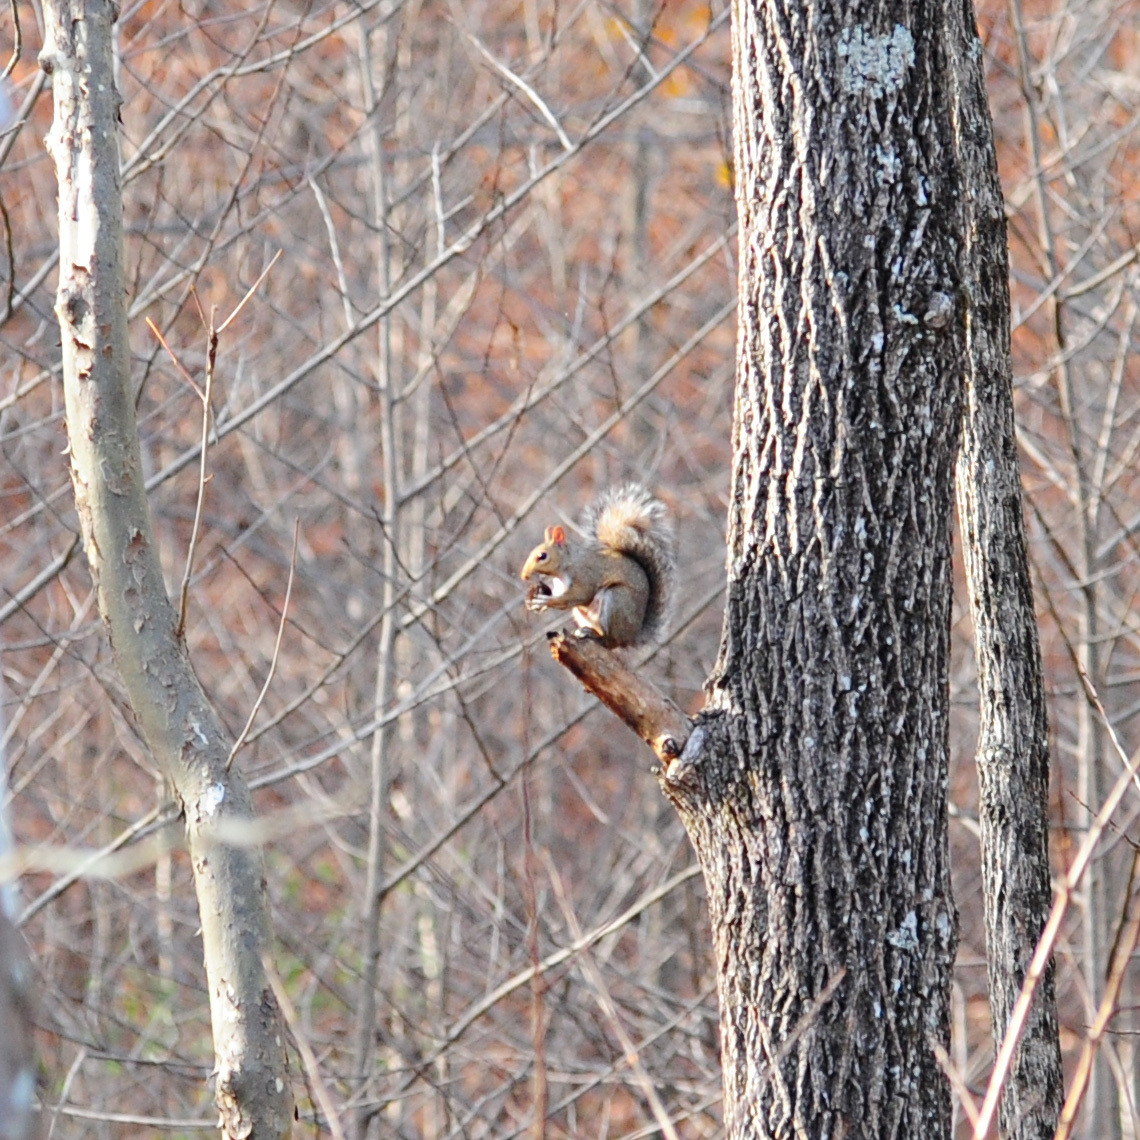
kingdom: Animalia
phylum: Chordata
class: Mammalia
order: Rodentia
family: Sciuridae
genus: Sciurus
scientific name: Sciurus carolinensis
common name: Eastern gray squirrel
